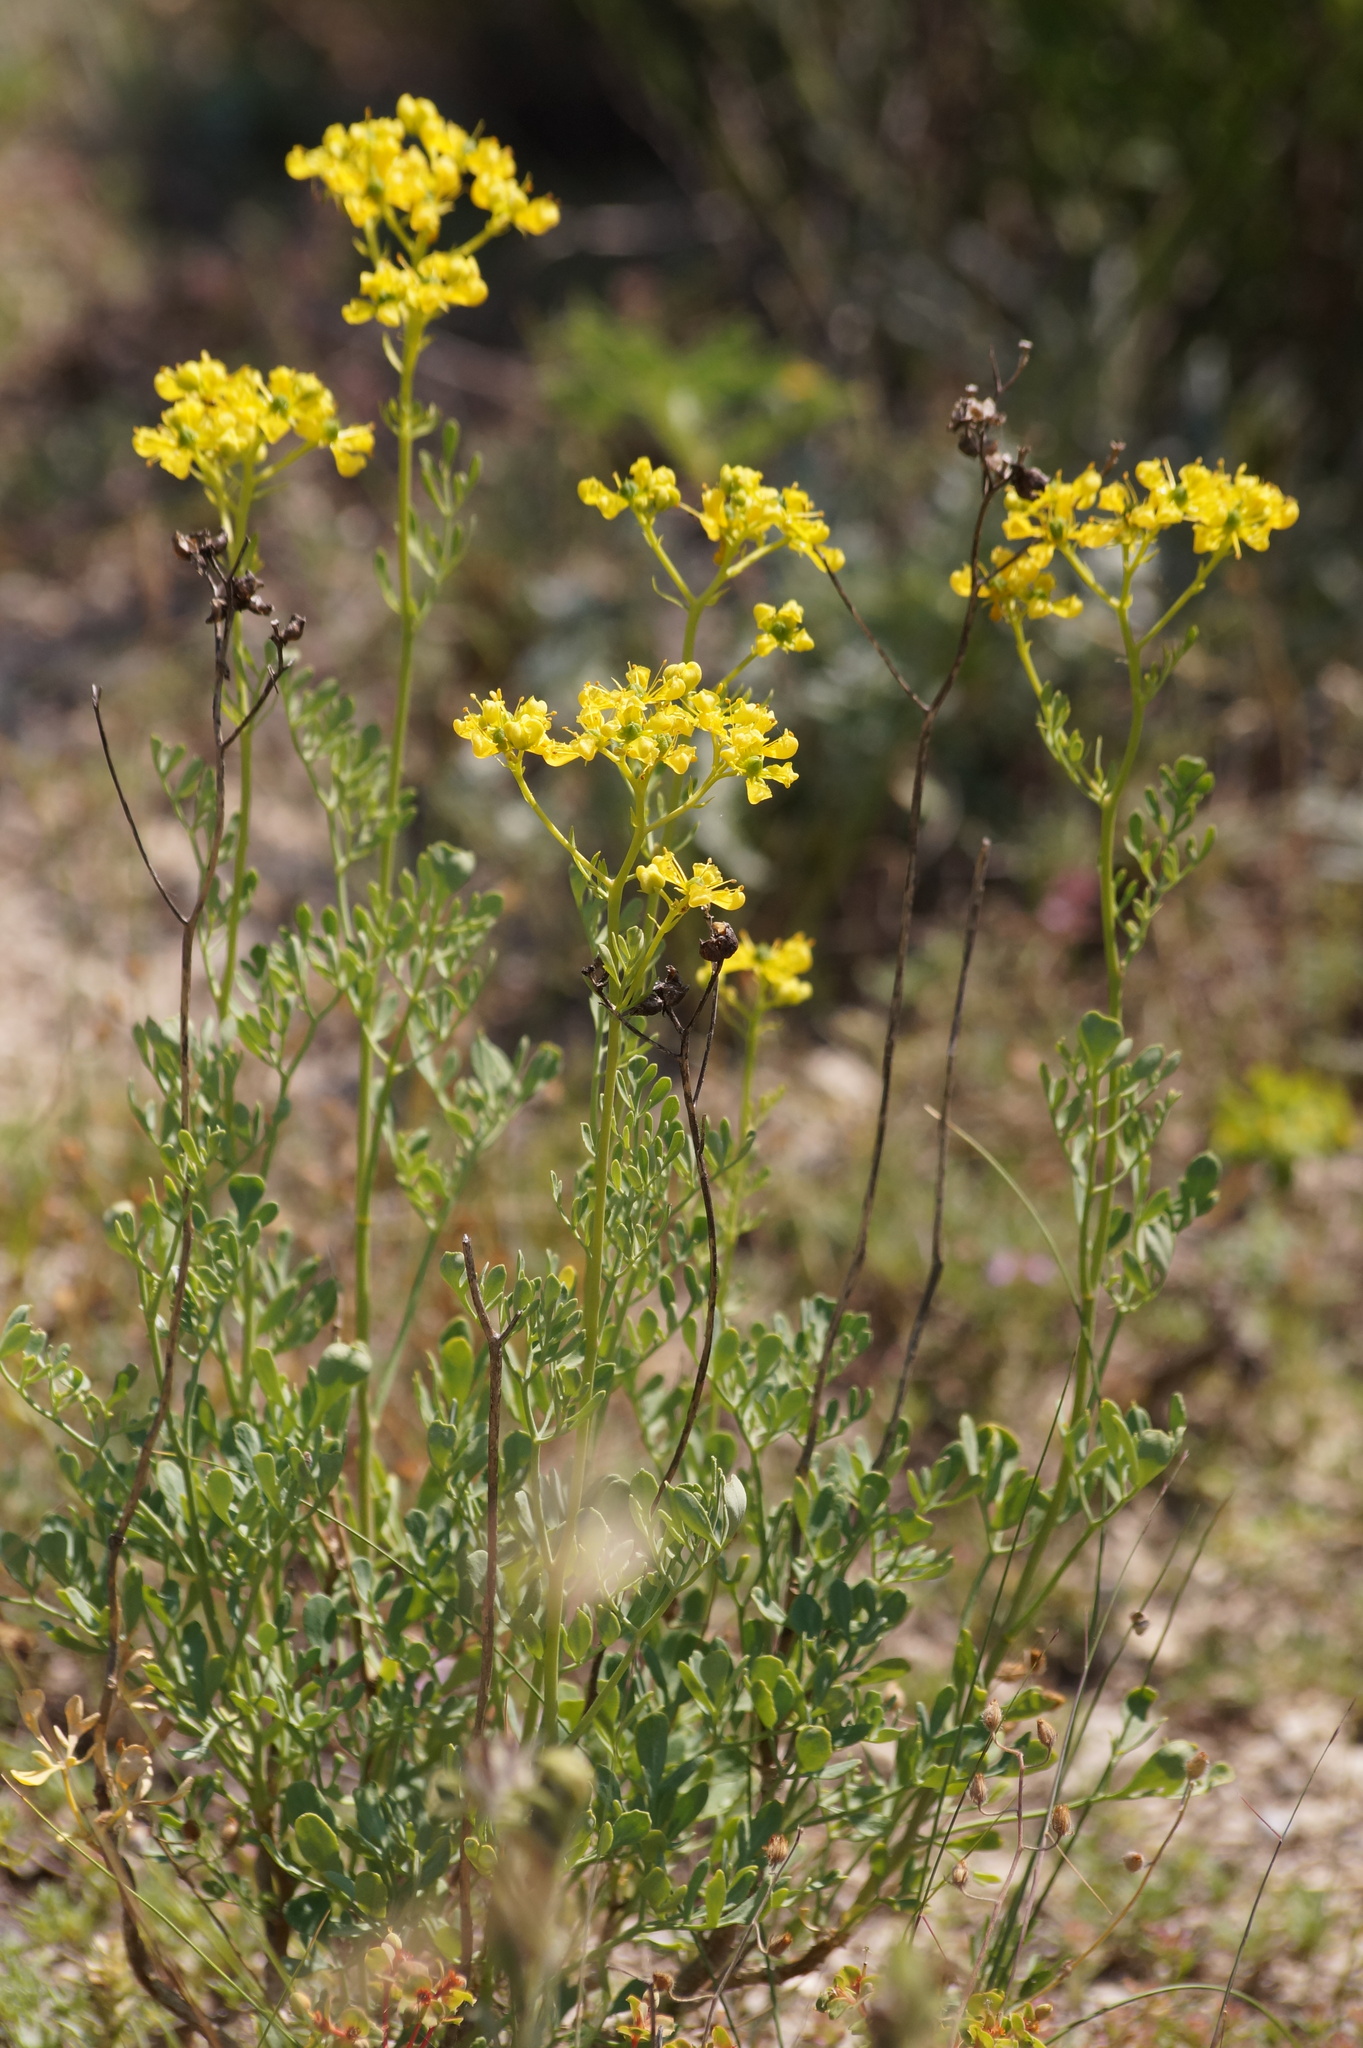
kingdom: Plantae
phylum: Tracheophyta
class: Magnoliopsida
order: Sapindales
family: Rutaceae
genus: Ruta
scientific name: Ruta
